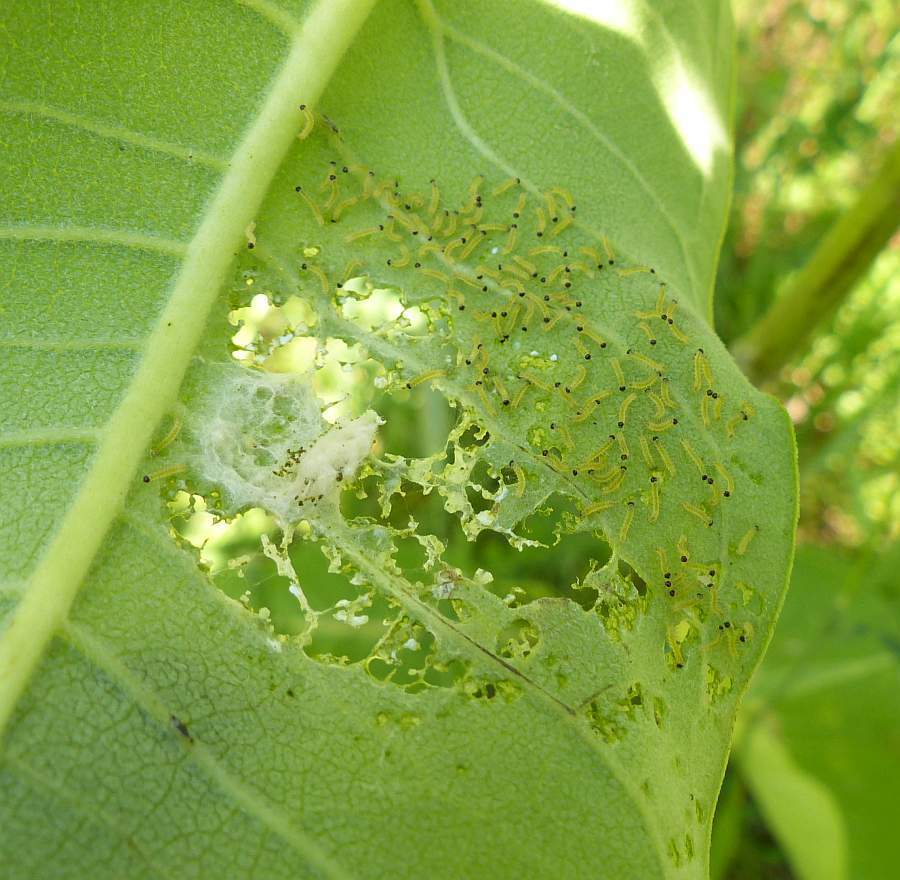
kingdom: Animalia
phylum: Arthropoda
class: Insecta
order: Lepidoptera
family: Erebidae
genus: Euchaetes
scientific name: Euchaetes egle
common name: Milkweed tussock moth
